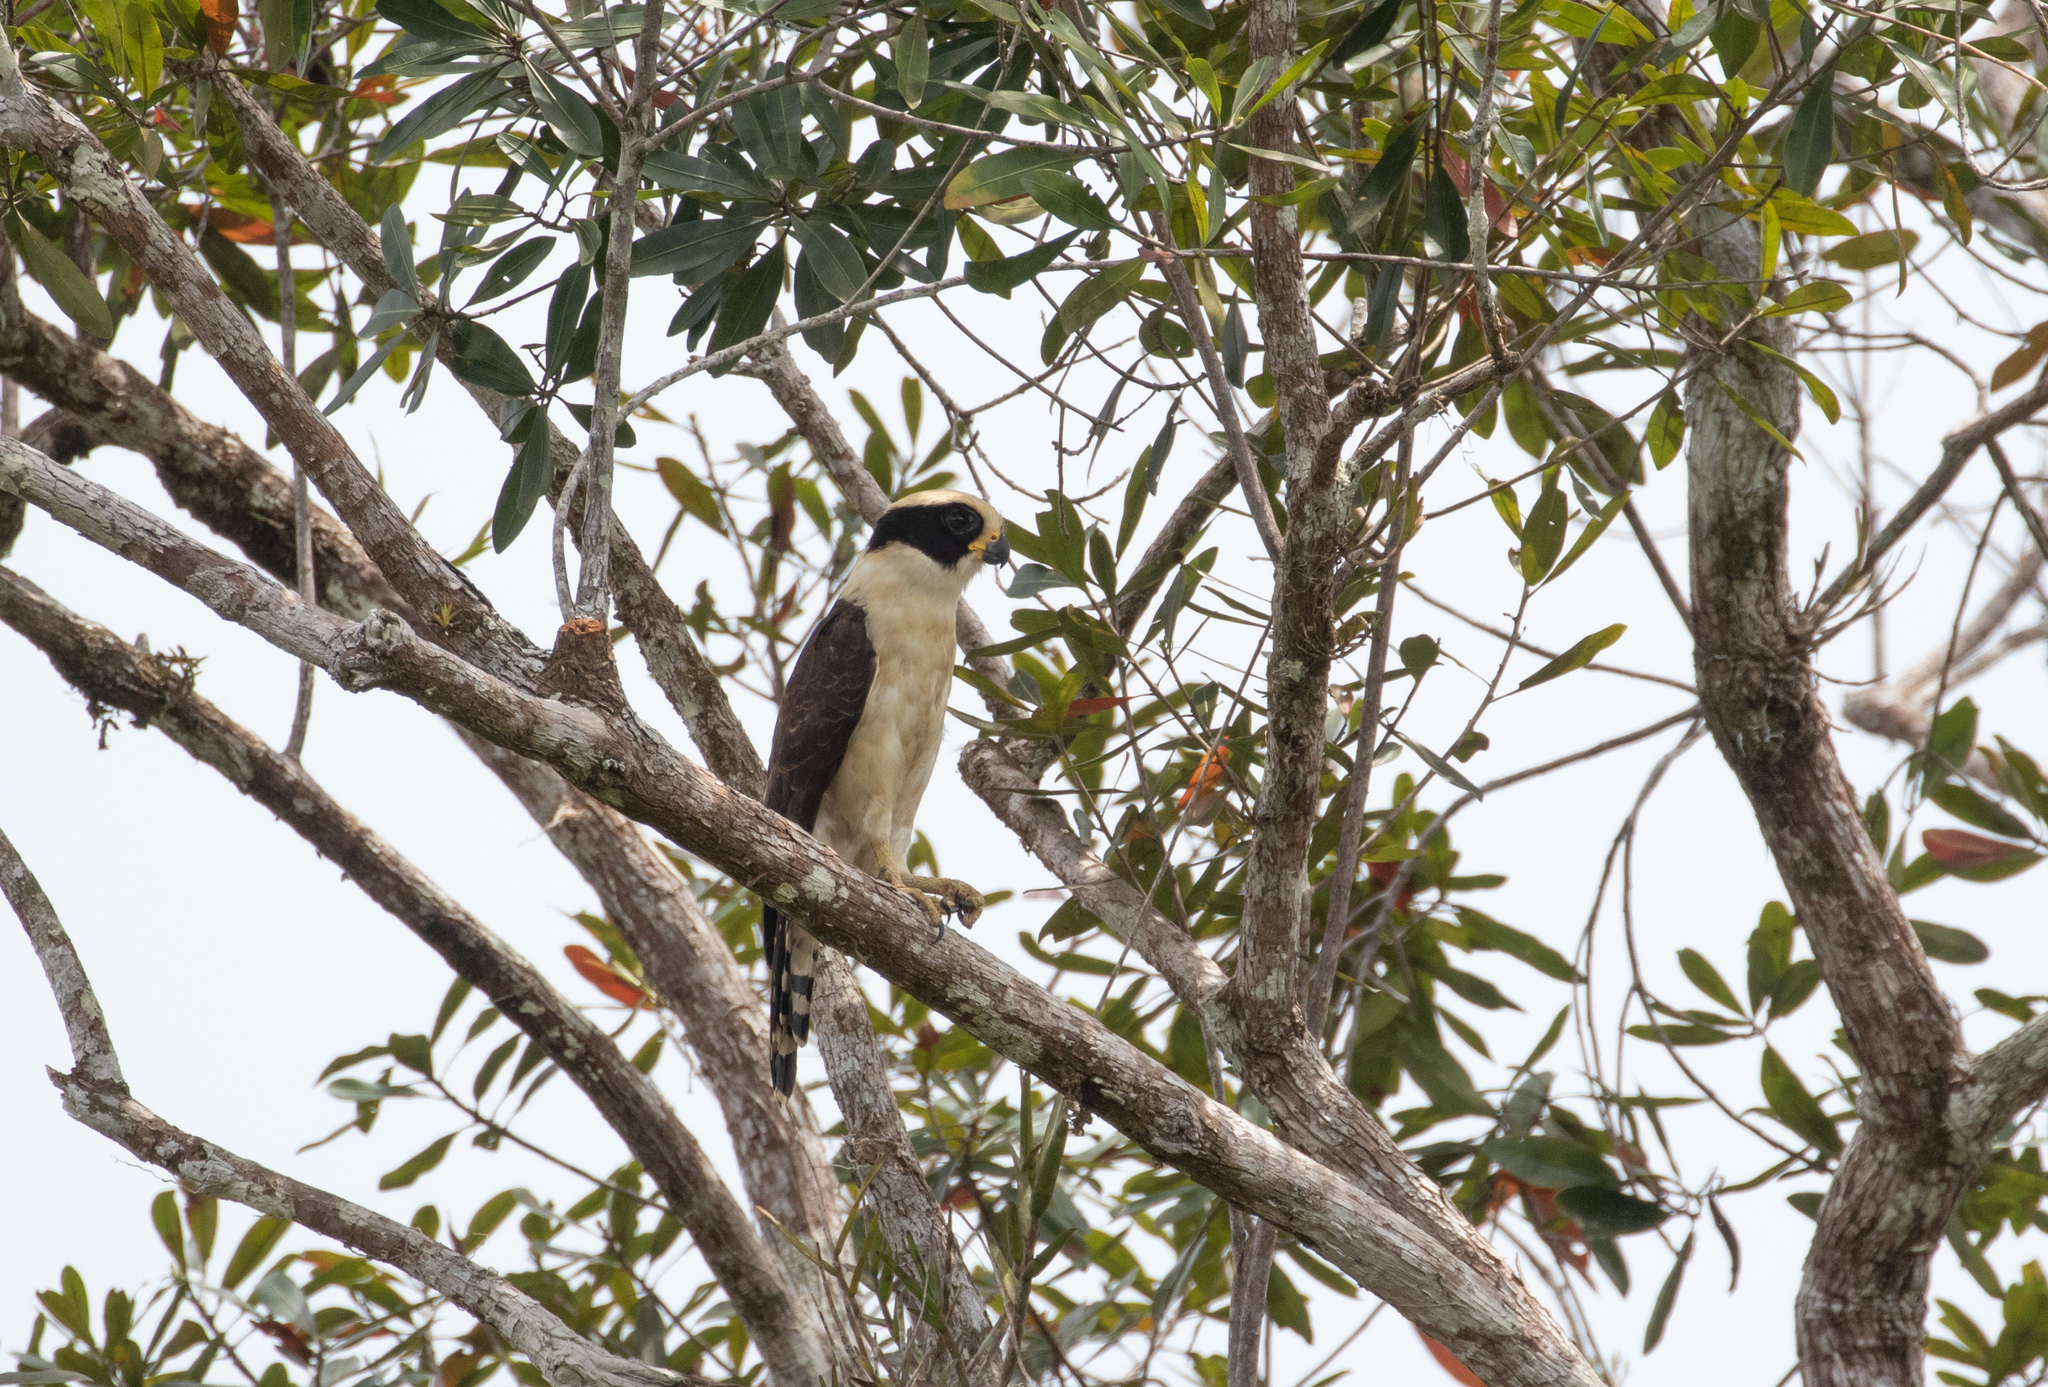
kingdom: Animalia
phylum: Chordata
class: Aves
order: Falconiformes
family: Falconidae
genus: Herpetotheres
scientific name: Herpetotheres cachinnans
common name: Laughing falcon
